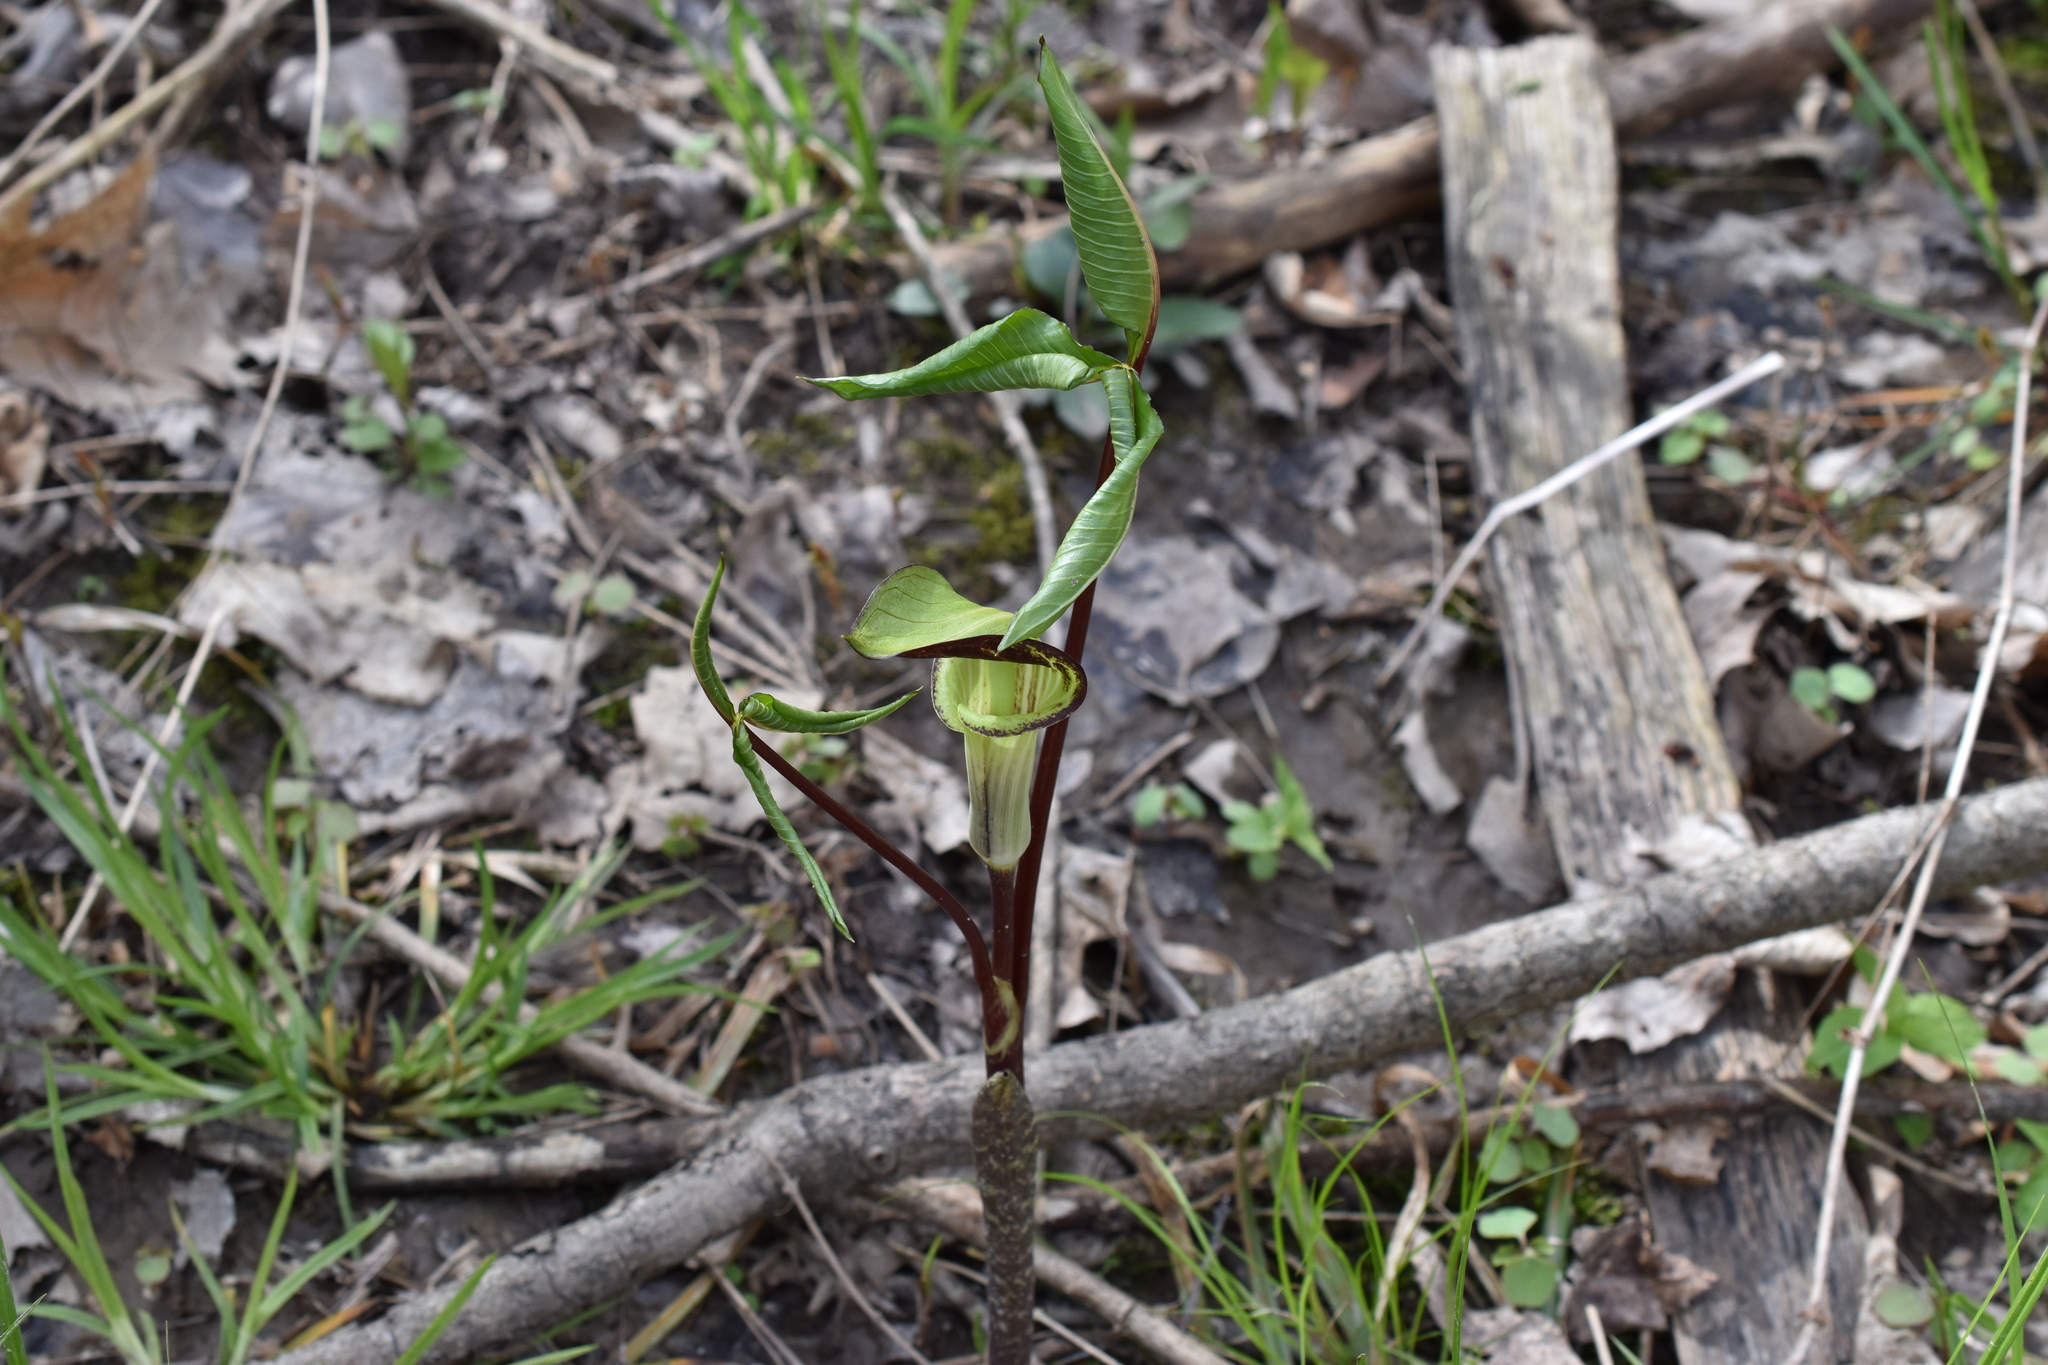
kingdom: Plantae
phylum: Tracheophyta
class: Liliopsida
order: Alismatales
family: Araceae
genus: Arisaema
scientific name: Arisaema triphyllum
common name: Jack-in-the-pulpit
